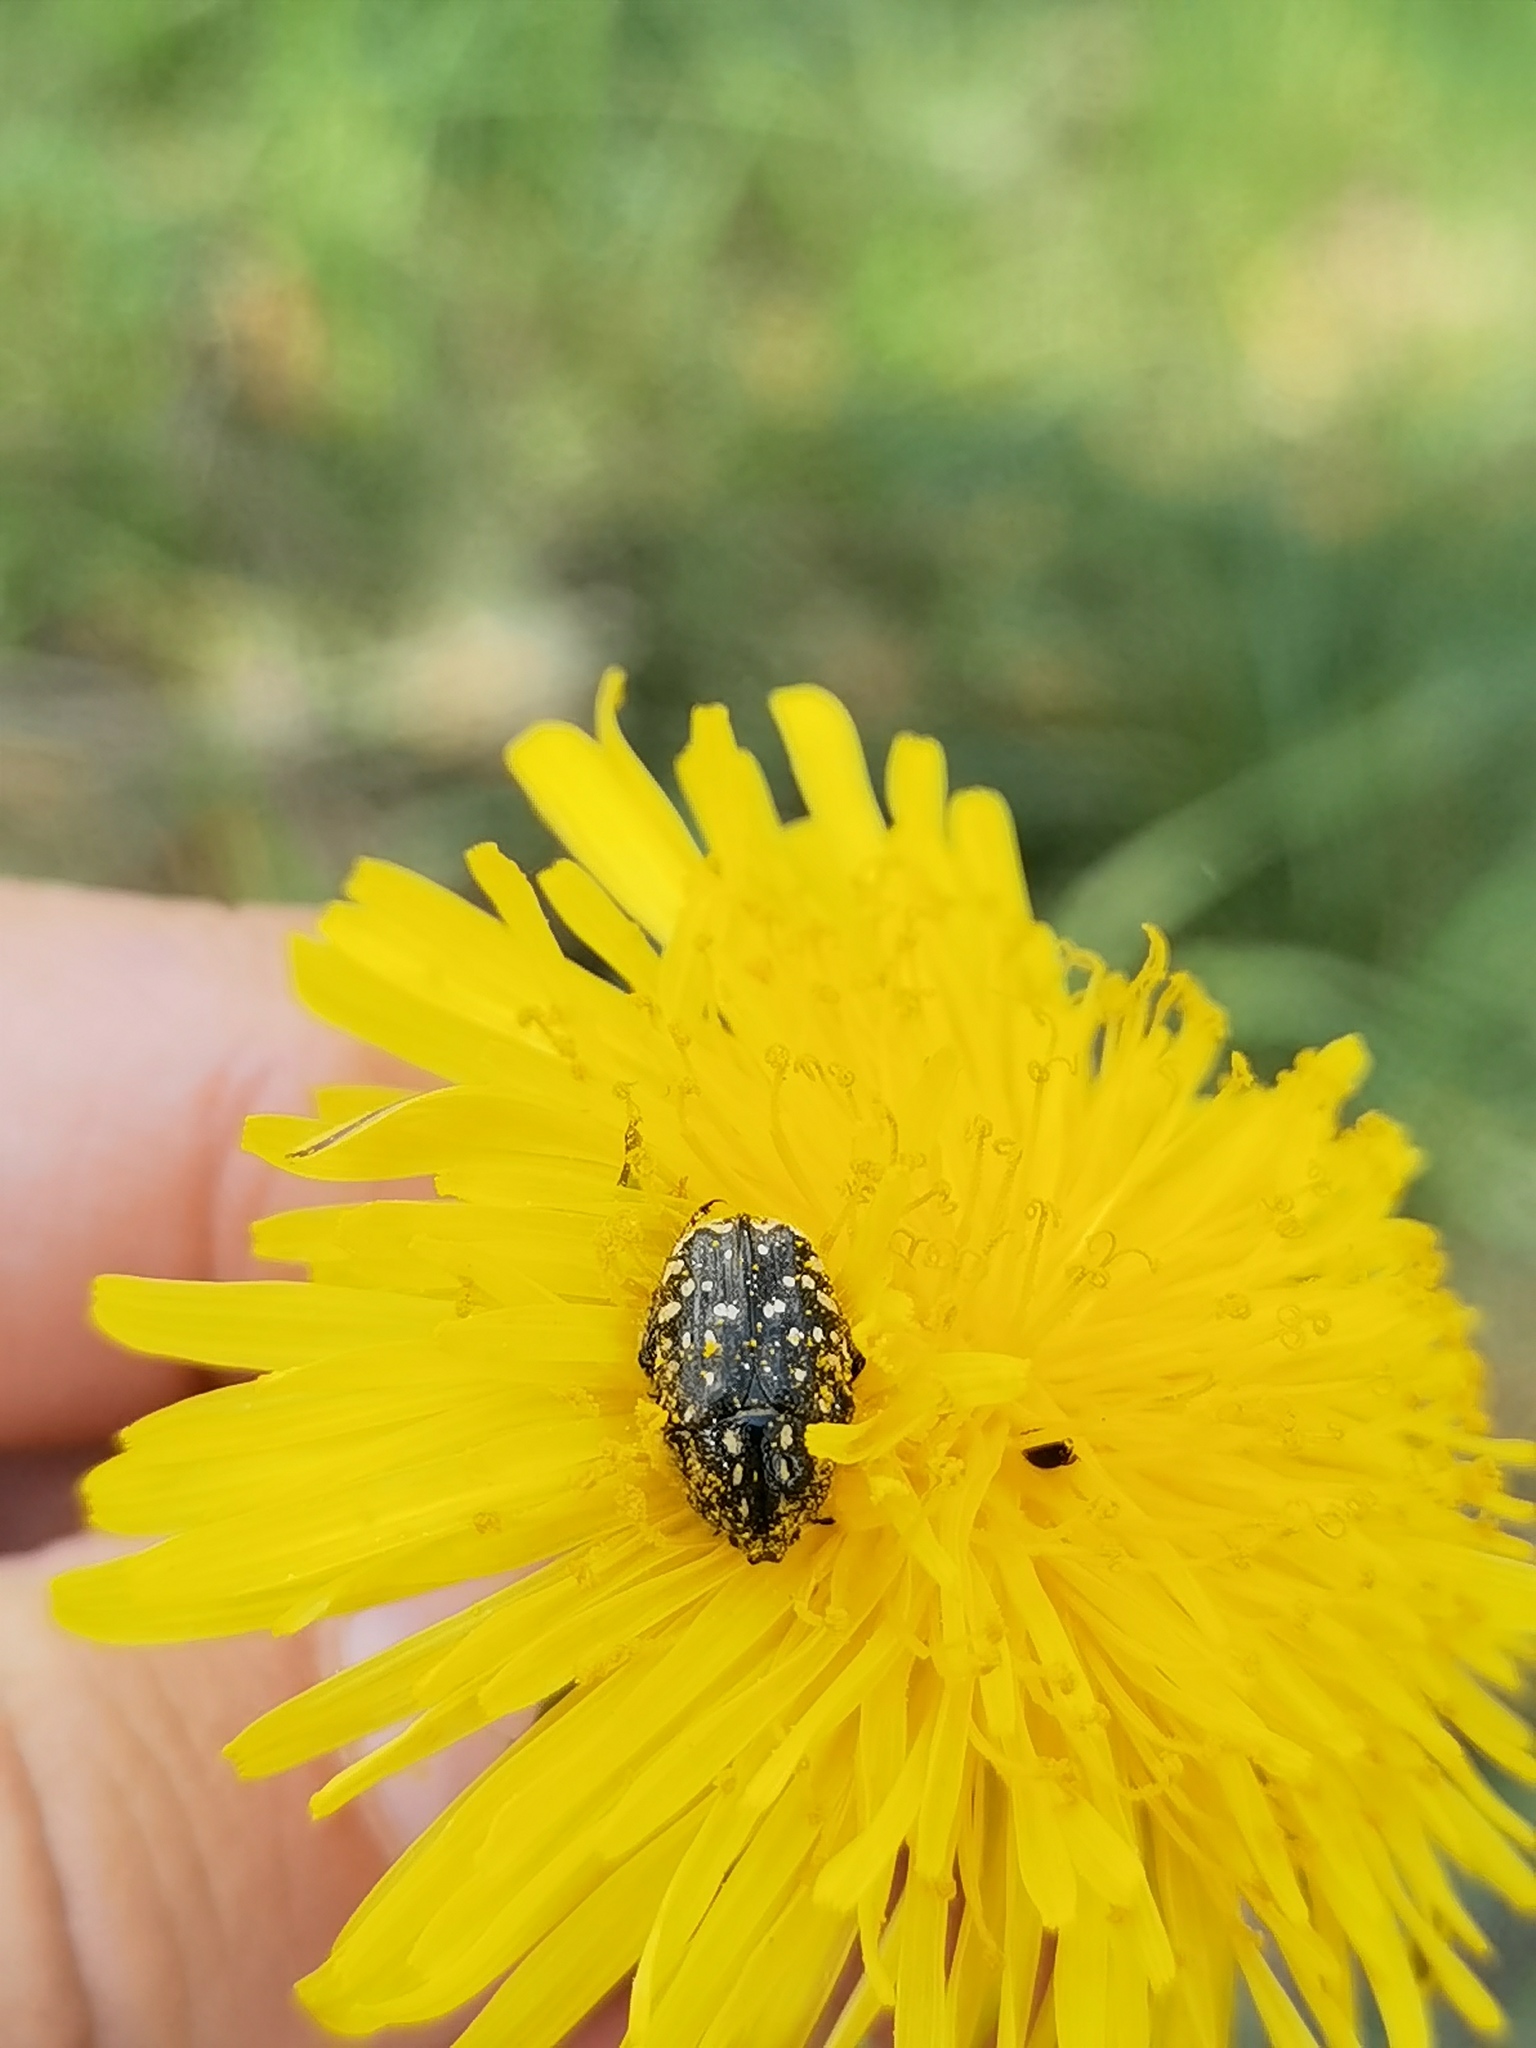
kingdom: Animalia
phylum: Arthropoda
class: Insecta
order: Coleoptera
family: Scarabaeidae
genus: Oxythyrea
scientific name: Oxythyrea funesta
